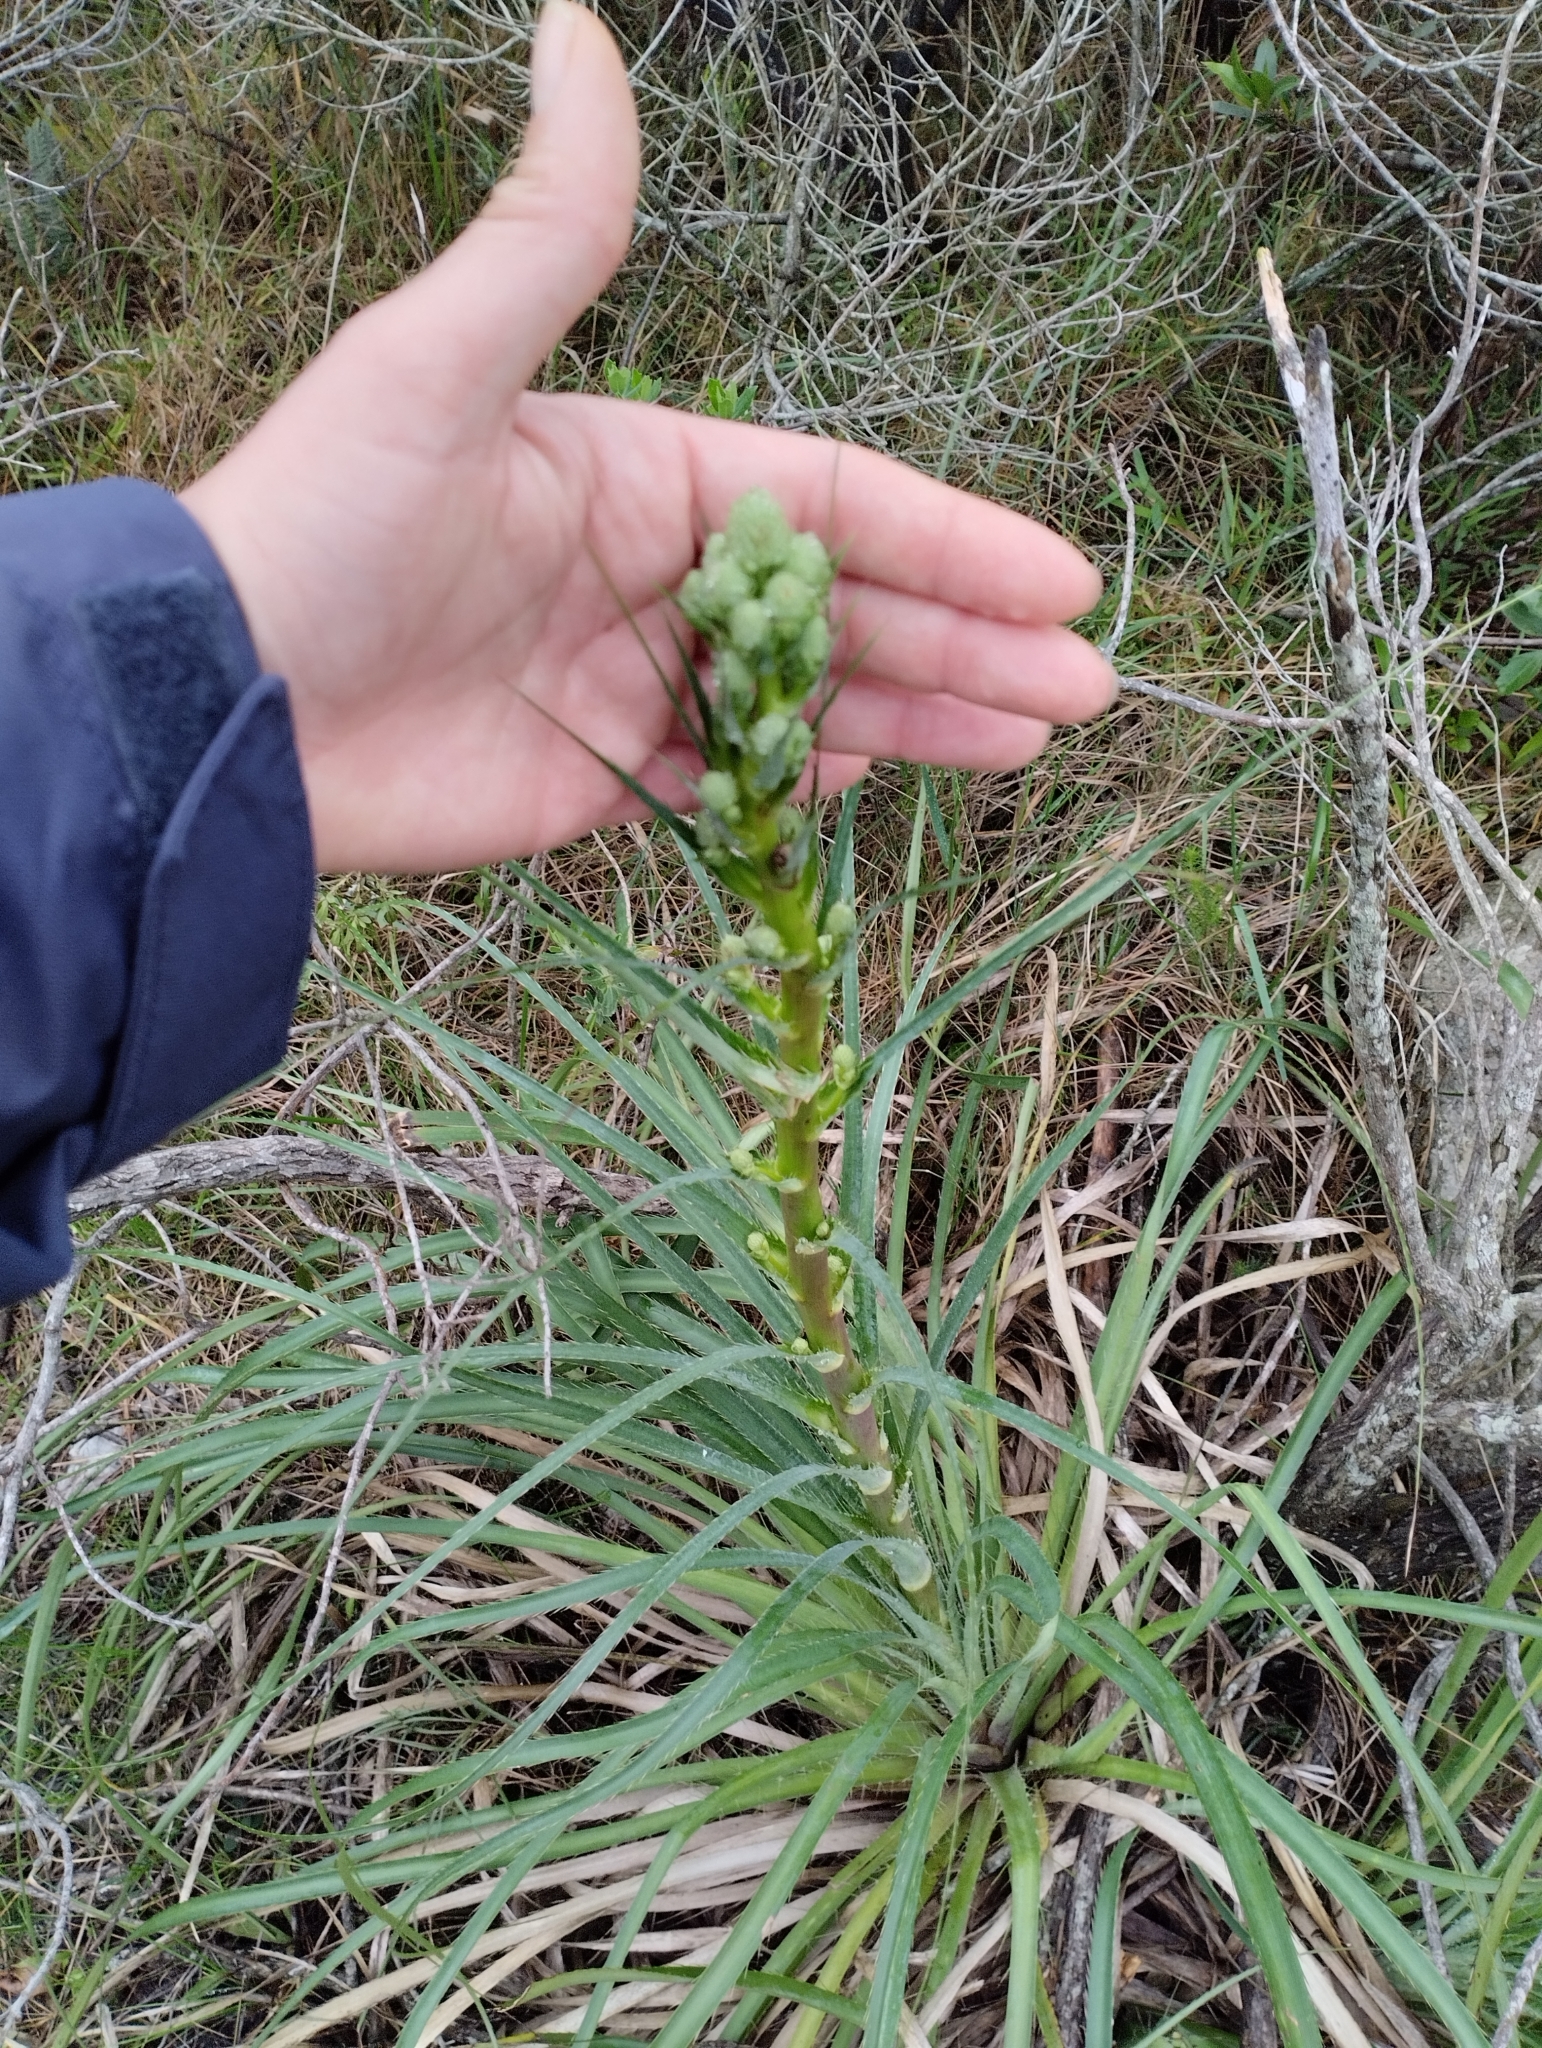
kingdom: Plantae
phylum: Tracheophyta
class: Magnoliopsida
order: Apiales
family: Apiaceae
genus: Eryngium
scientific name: Eryngium regnellii
